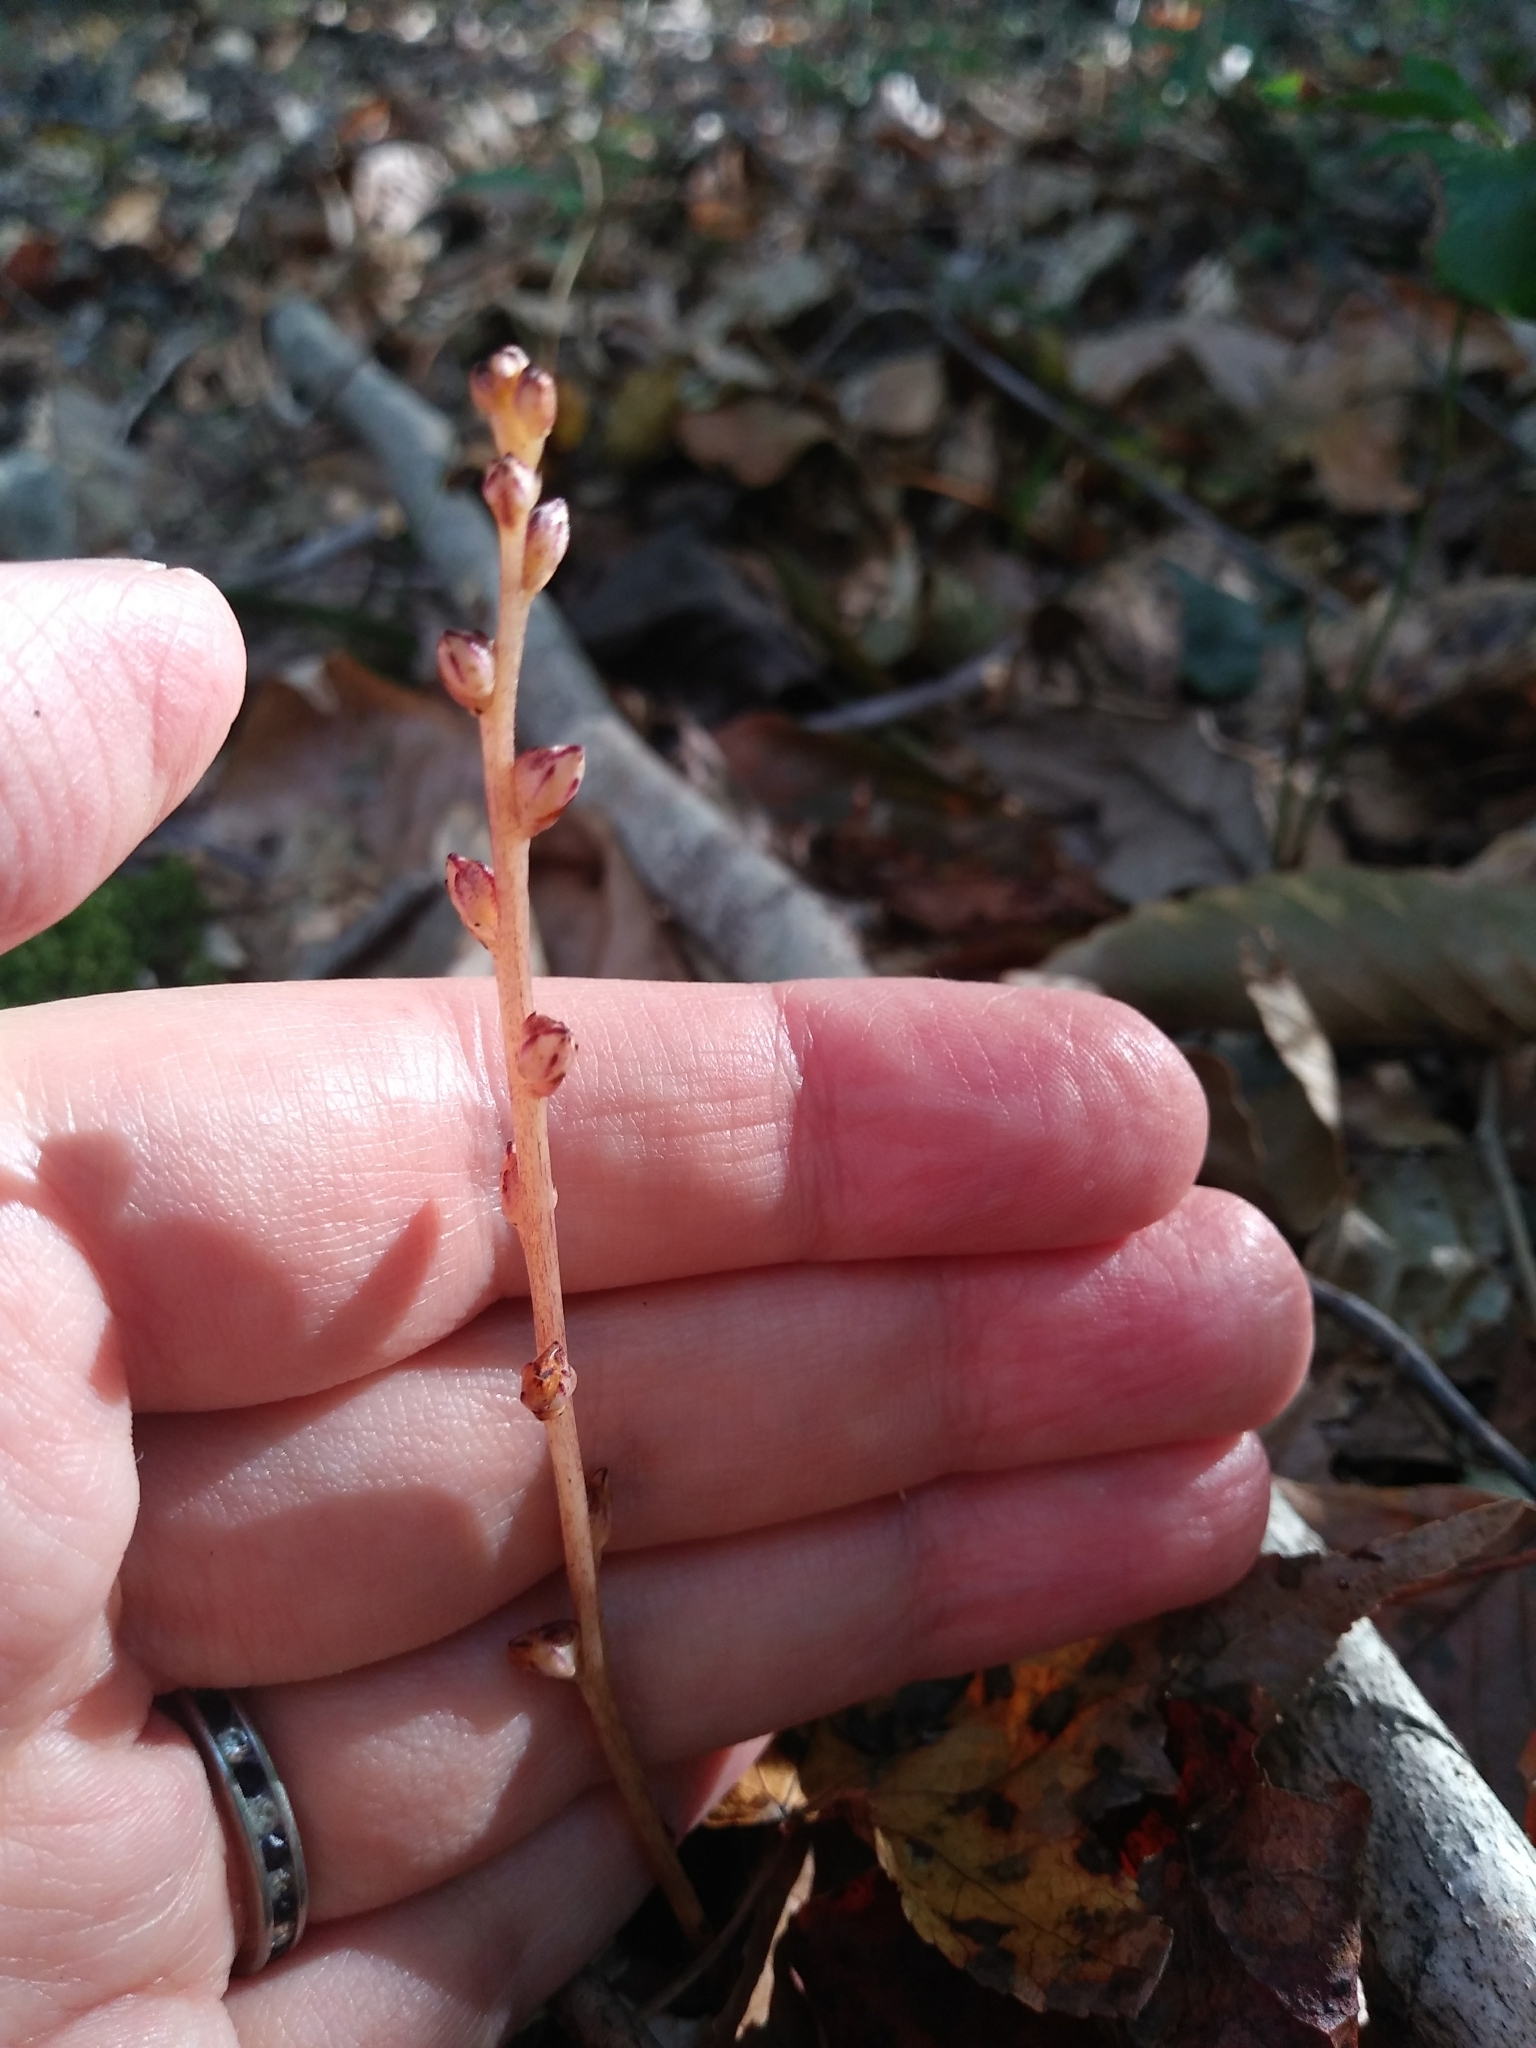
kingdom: Plantae
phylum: Tracheophyta
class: Magnoliopsida
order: Lamiales
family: Orobanchaceae
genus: Epifagus
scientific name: Epifagus virginiana
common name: Beechdrops
